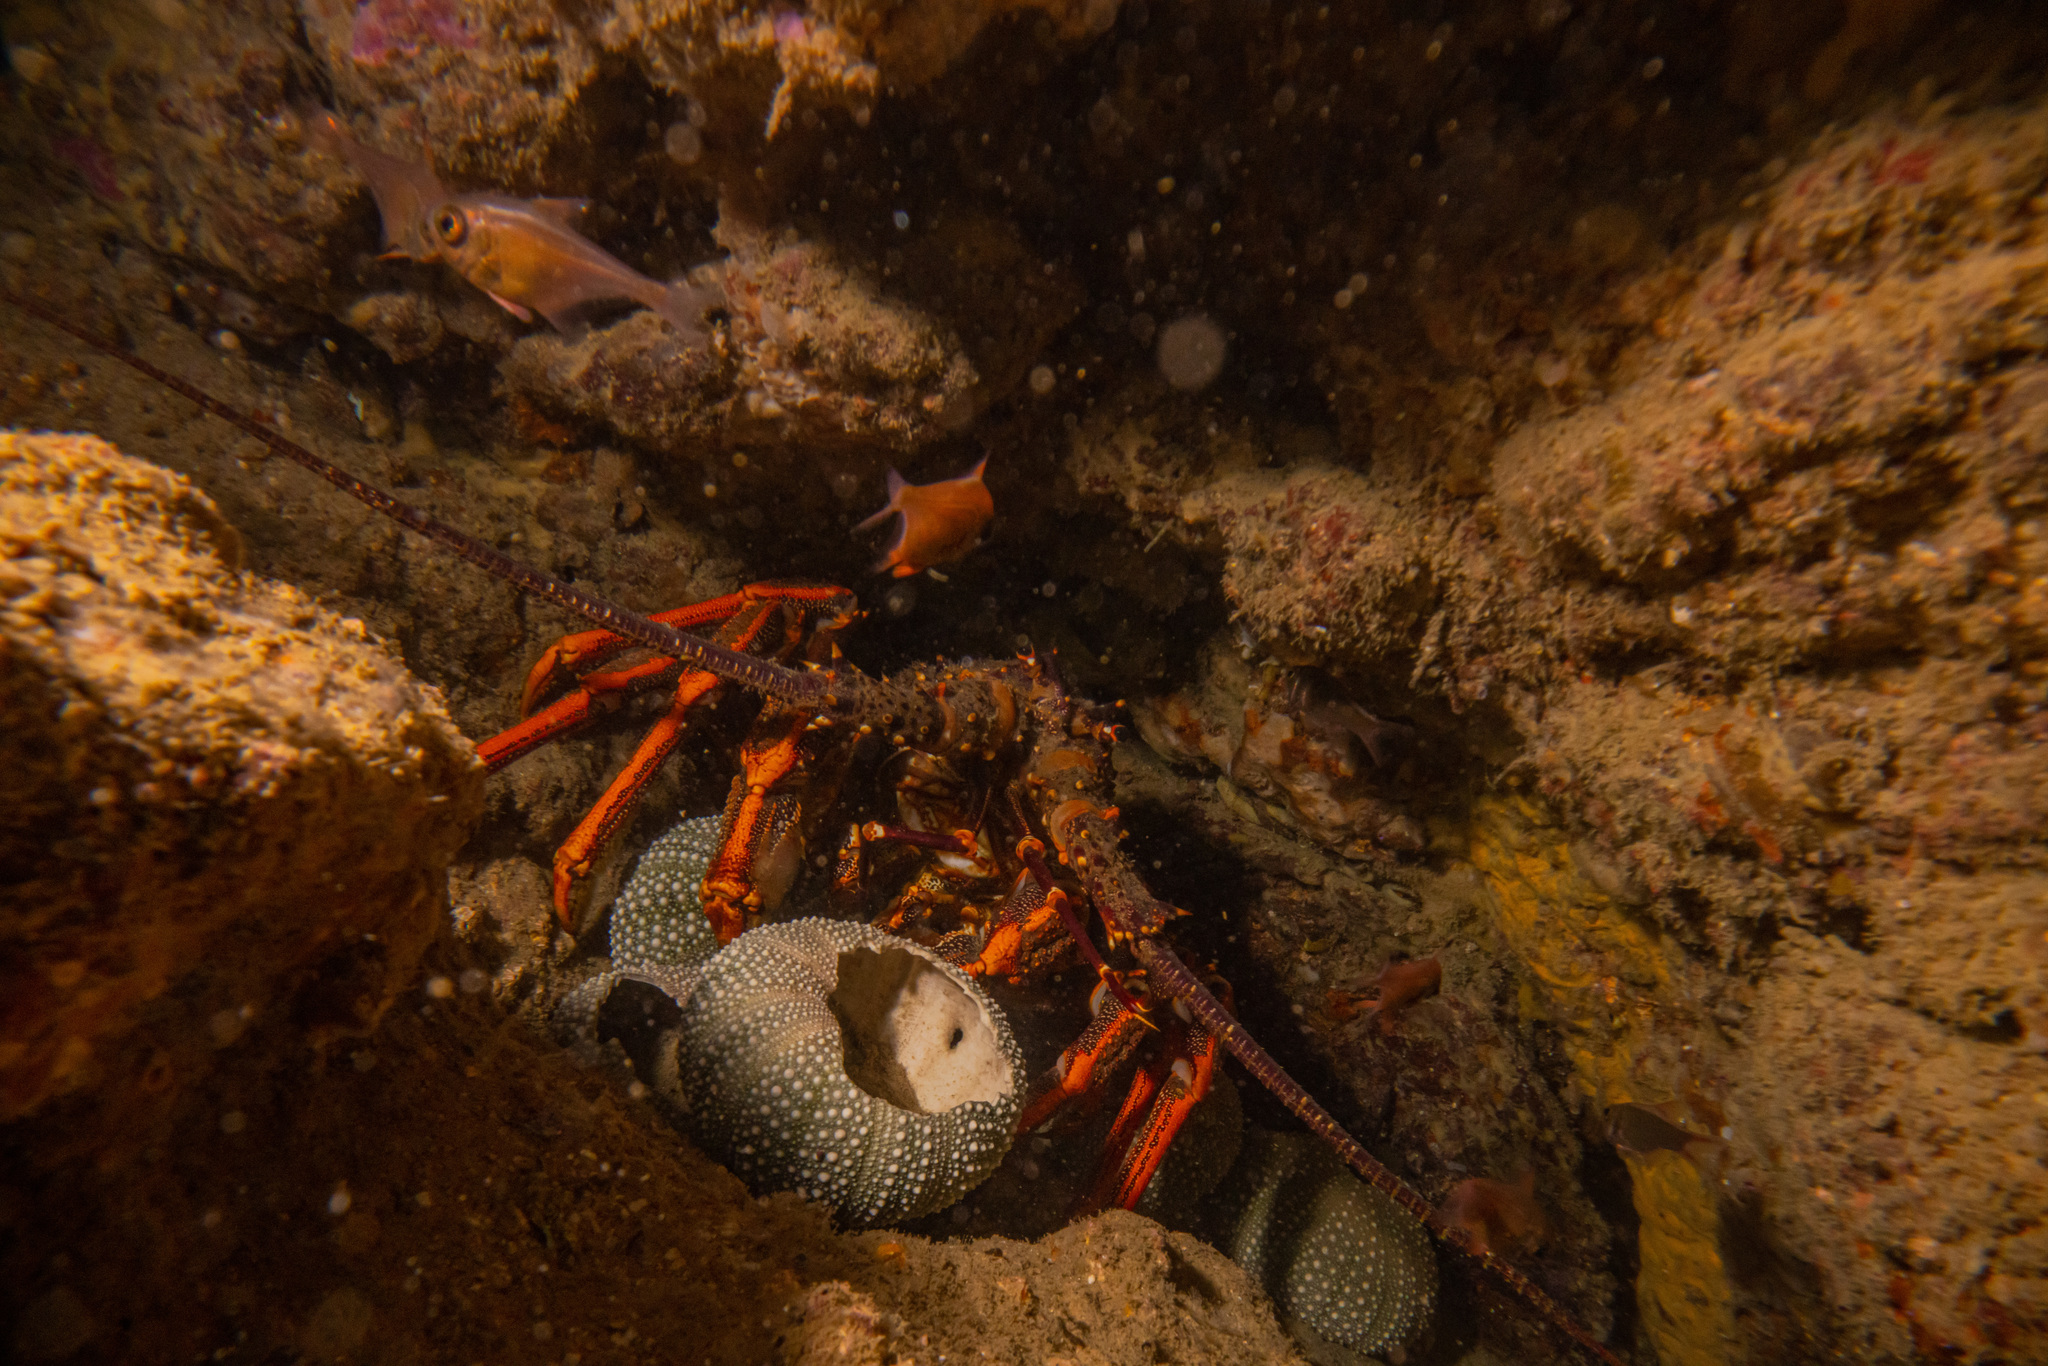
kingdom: Animalia
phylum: Arthropoda
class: Malacostraca
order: Decapoda
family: Palinuridae
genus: Jasus
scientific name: Jasus edwardsii
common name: Red rock lobster
